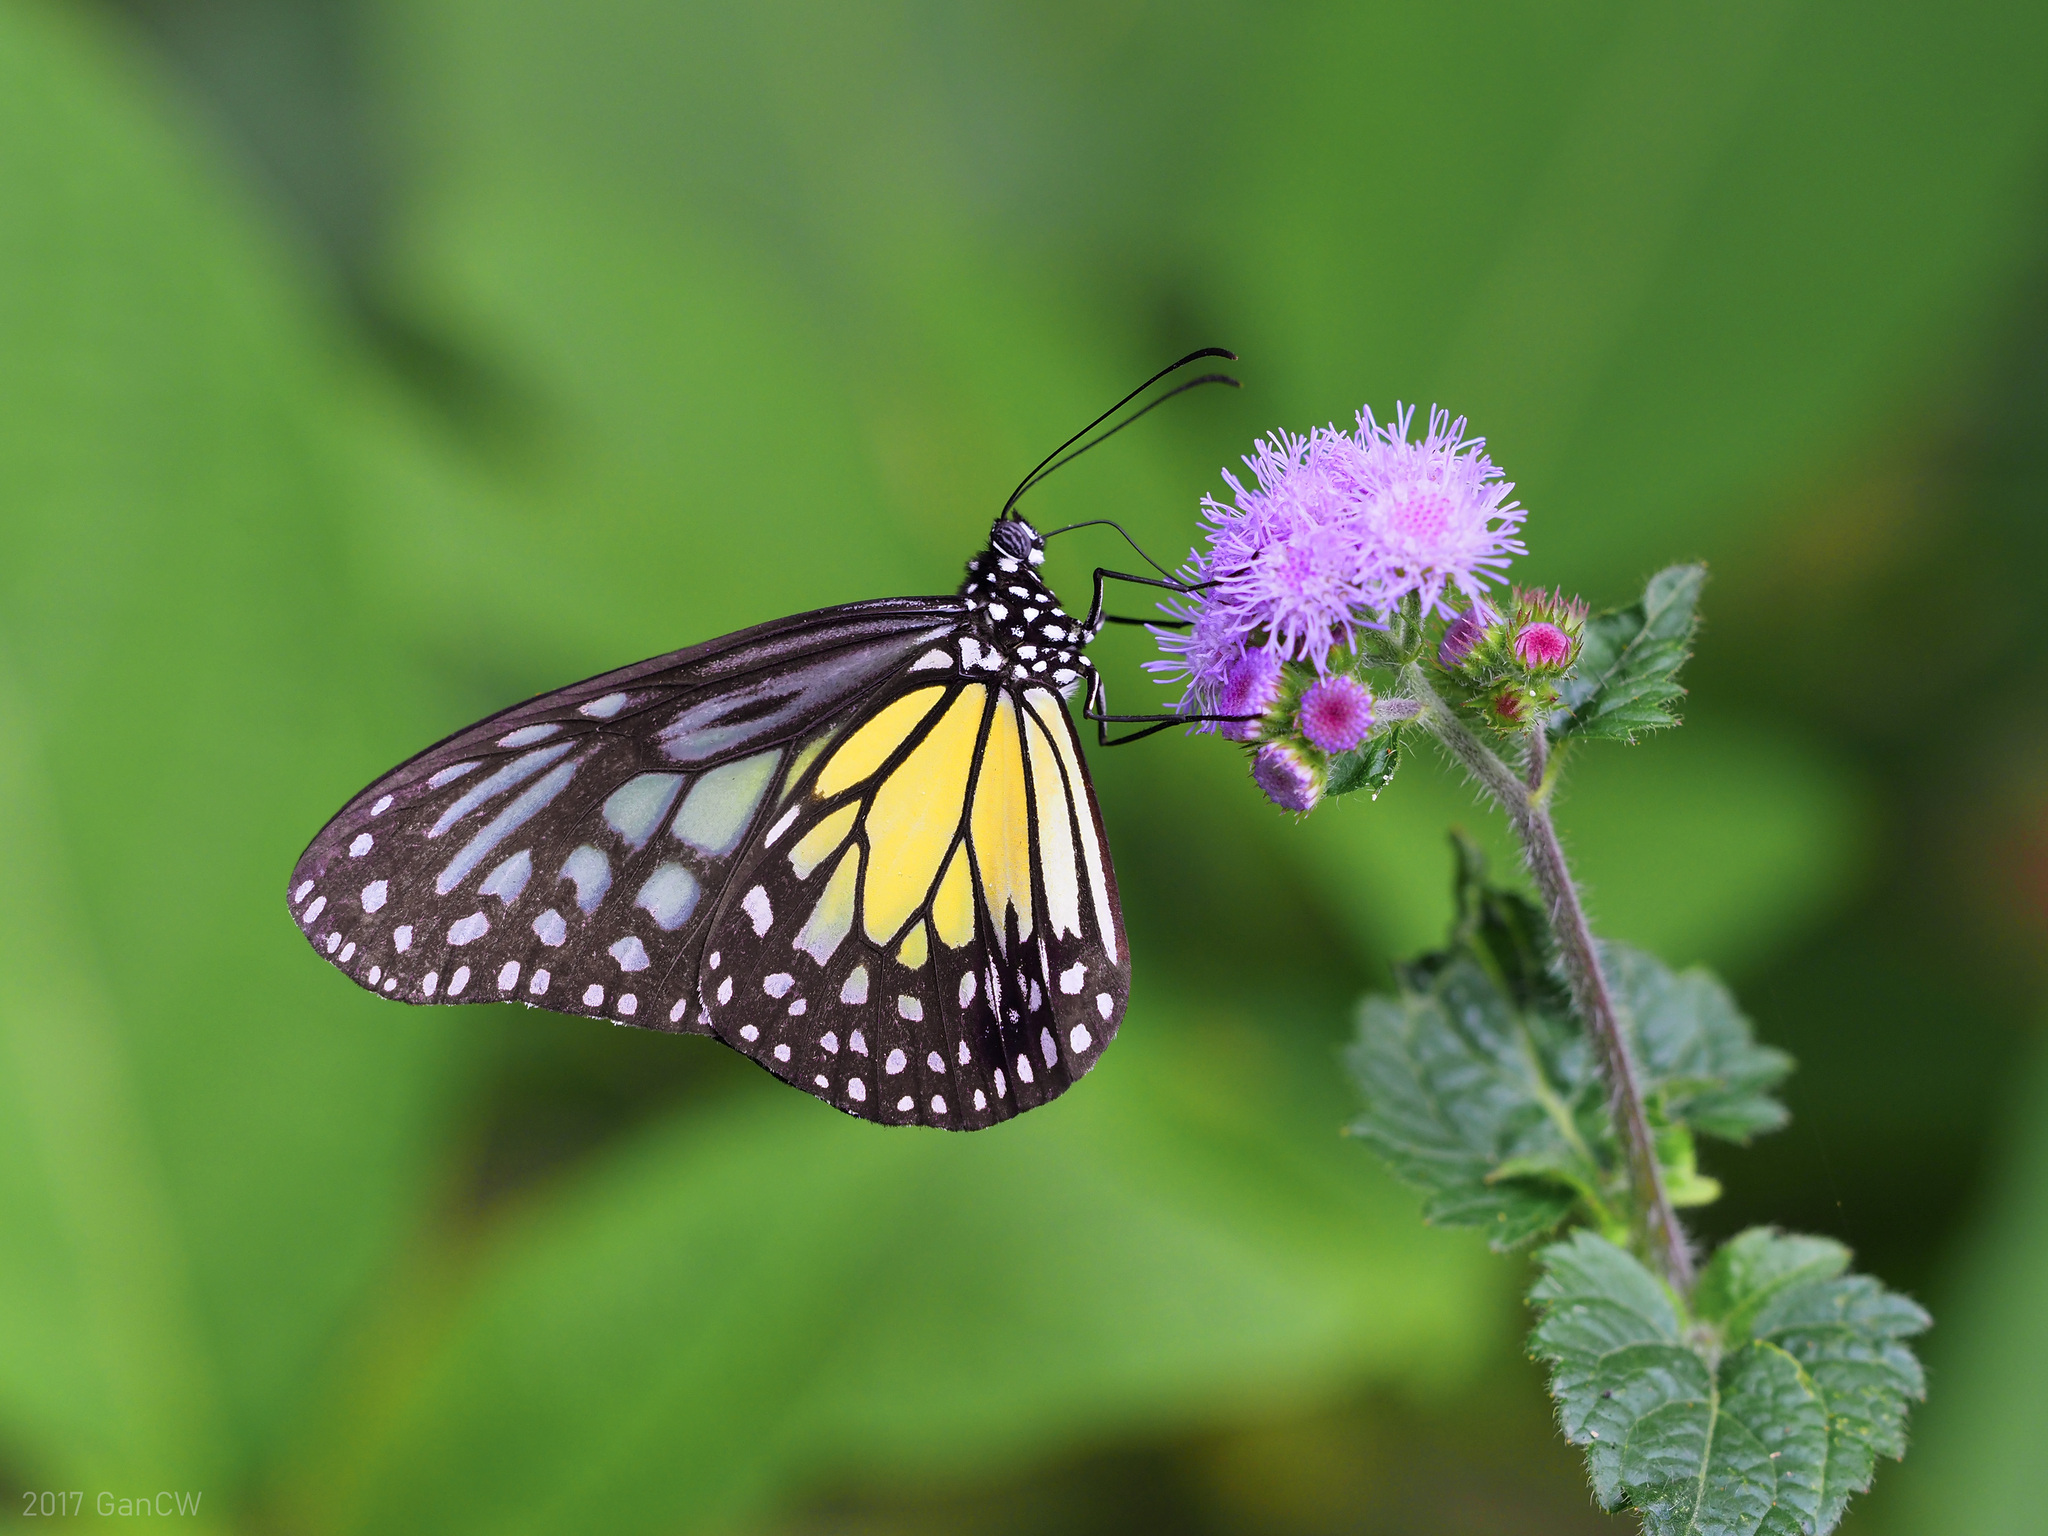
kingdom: Animalia
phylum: Arthropoda
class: Insecta
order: Lepidoptera
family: Nymphalidae
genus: Parantica
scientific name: Parantica aspasia
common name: Yellow glassy tiger
